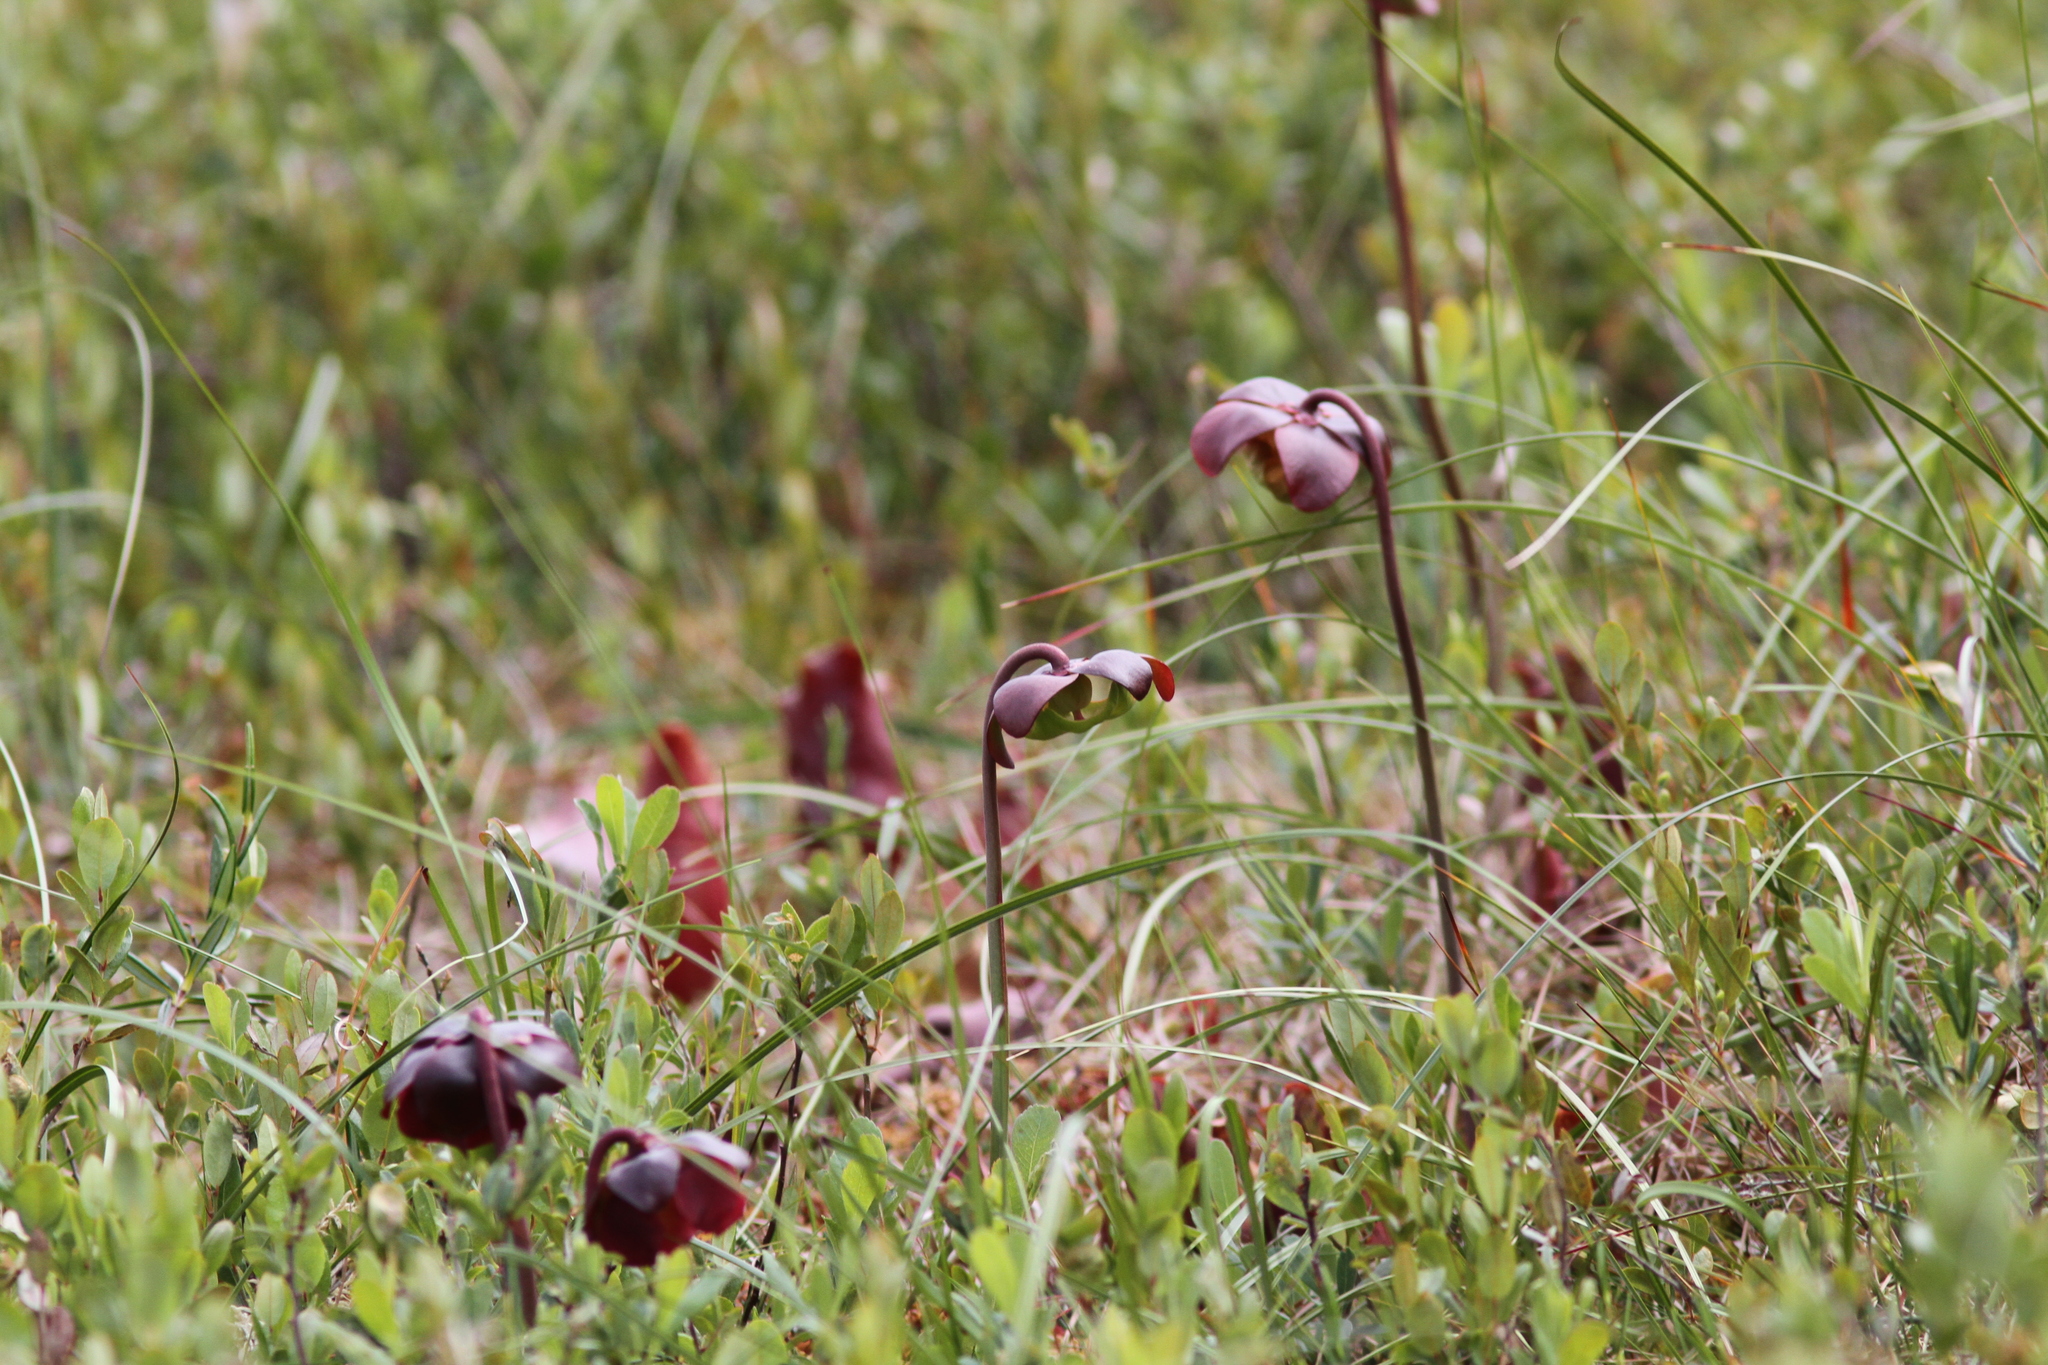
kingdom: Plantae
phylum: Tracheophyta
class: Magnoliopsida
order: Ericales
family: Sarraceniaceae
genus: Sarracenia
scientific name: Sarracenia purpurea
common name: Pitcherplant
